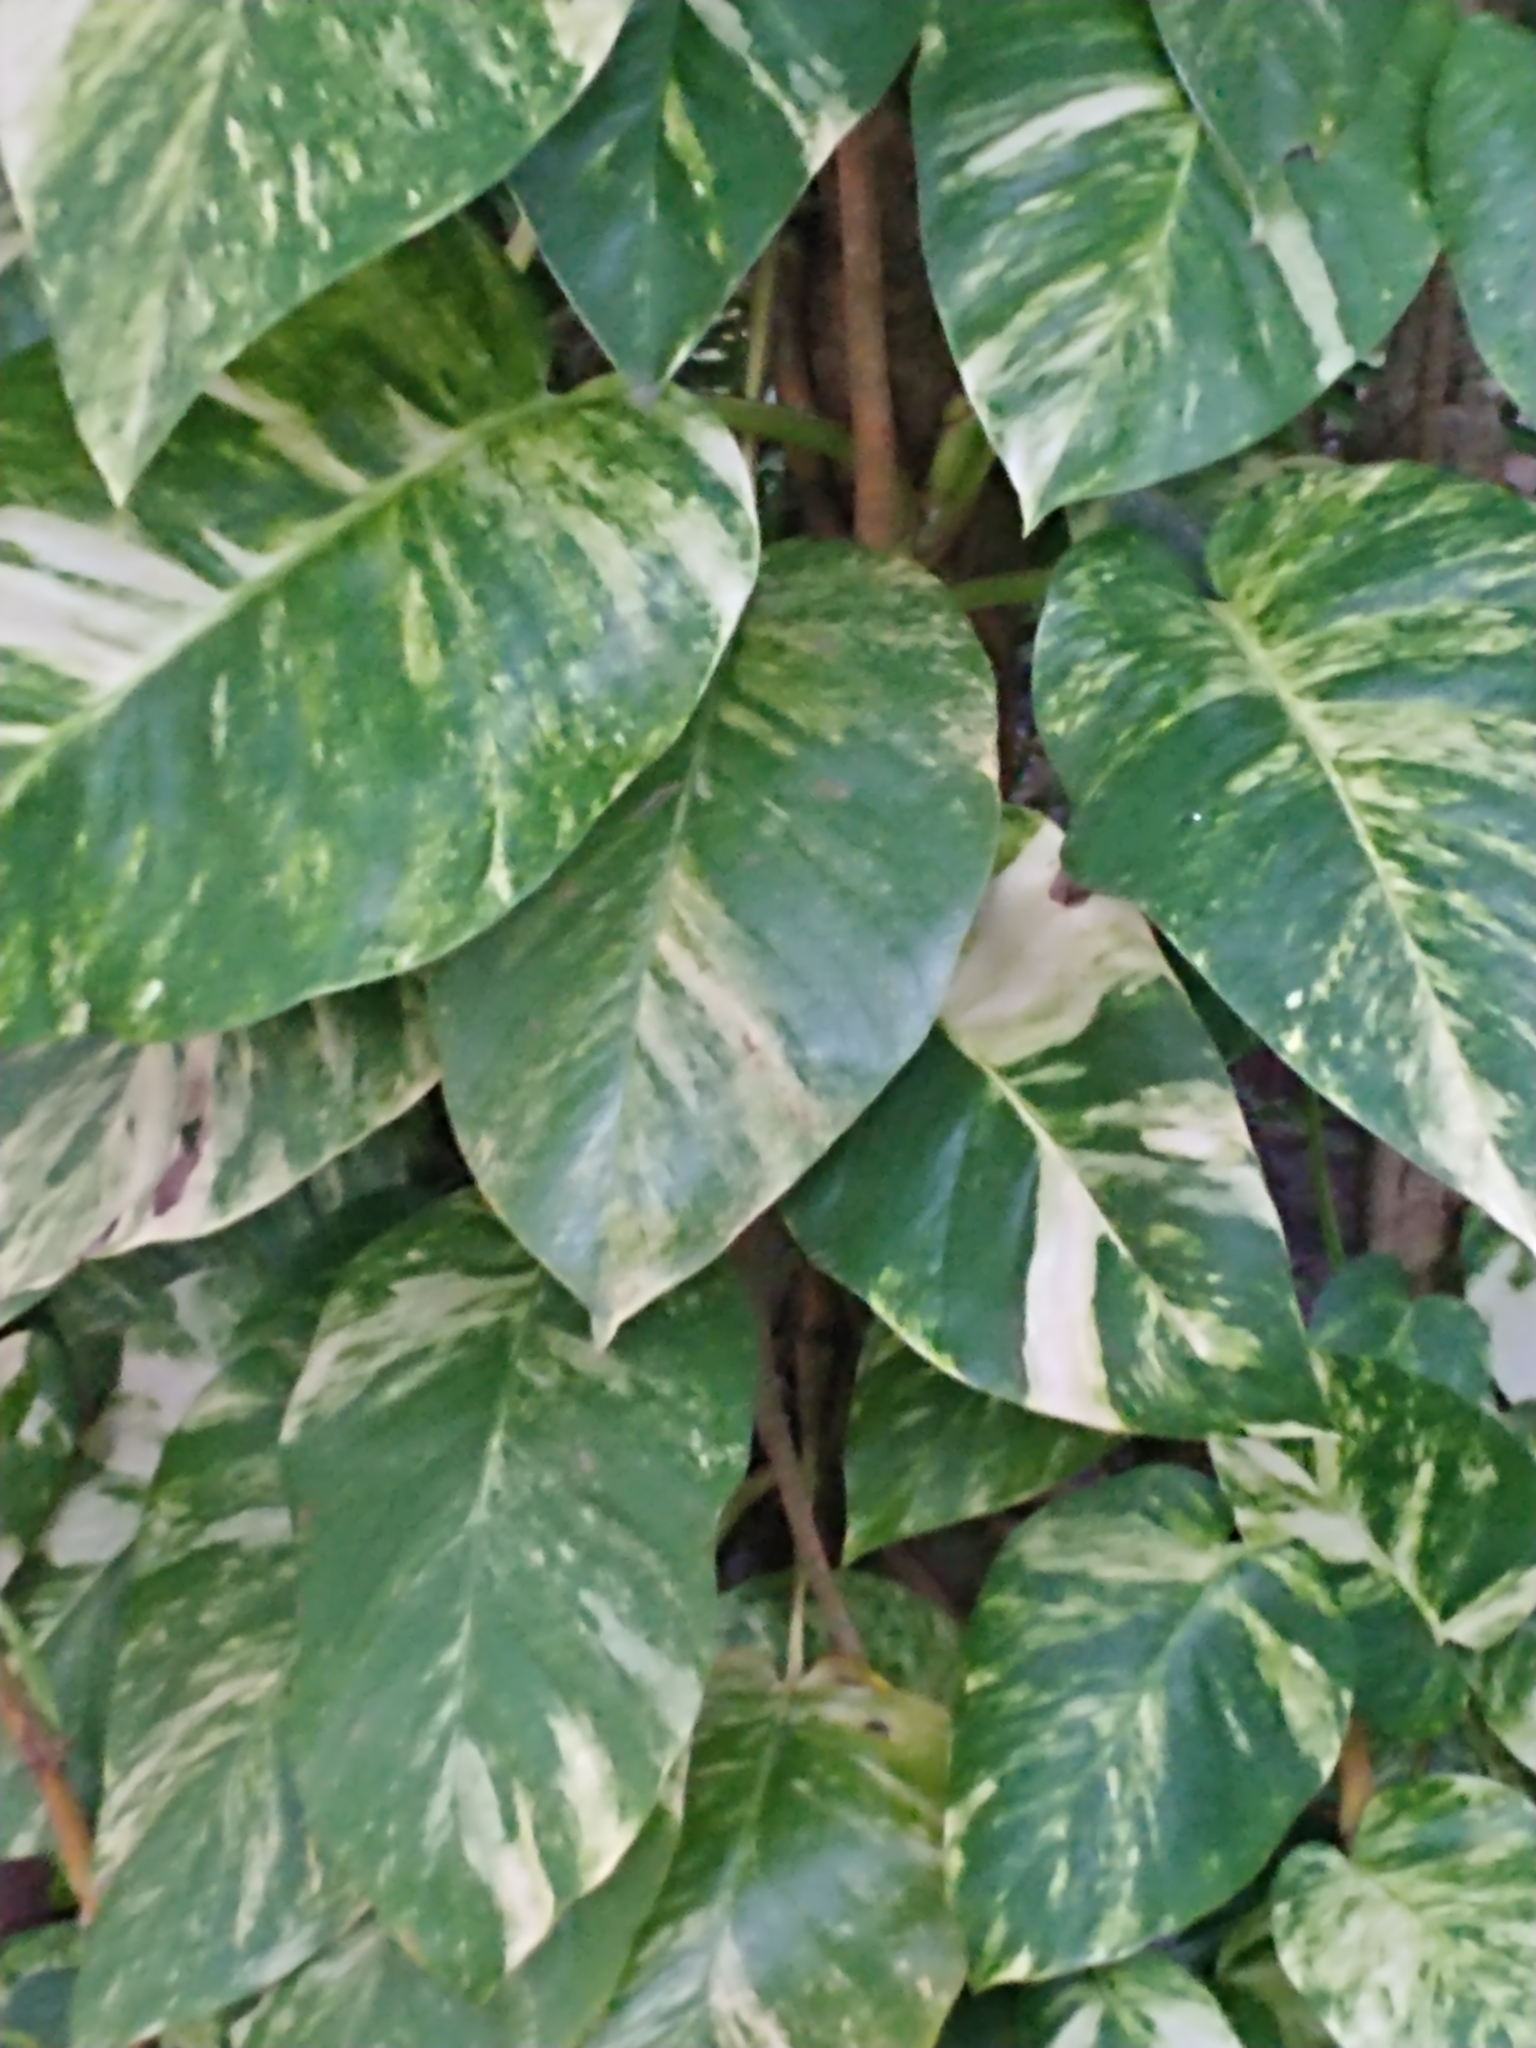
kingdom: Plantae
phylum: Tracheophyta
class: Liliopsida
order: Alismatales
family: Araceae
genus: Epipremnum
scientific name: Epipremnum aureum
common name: Golden hunter's-robe
